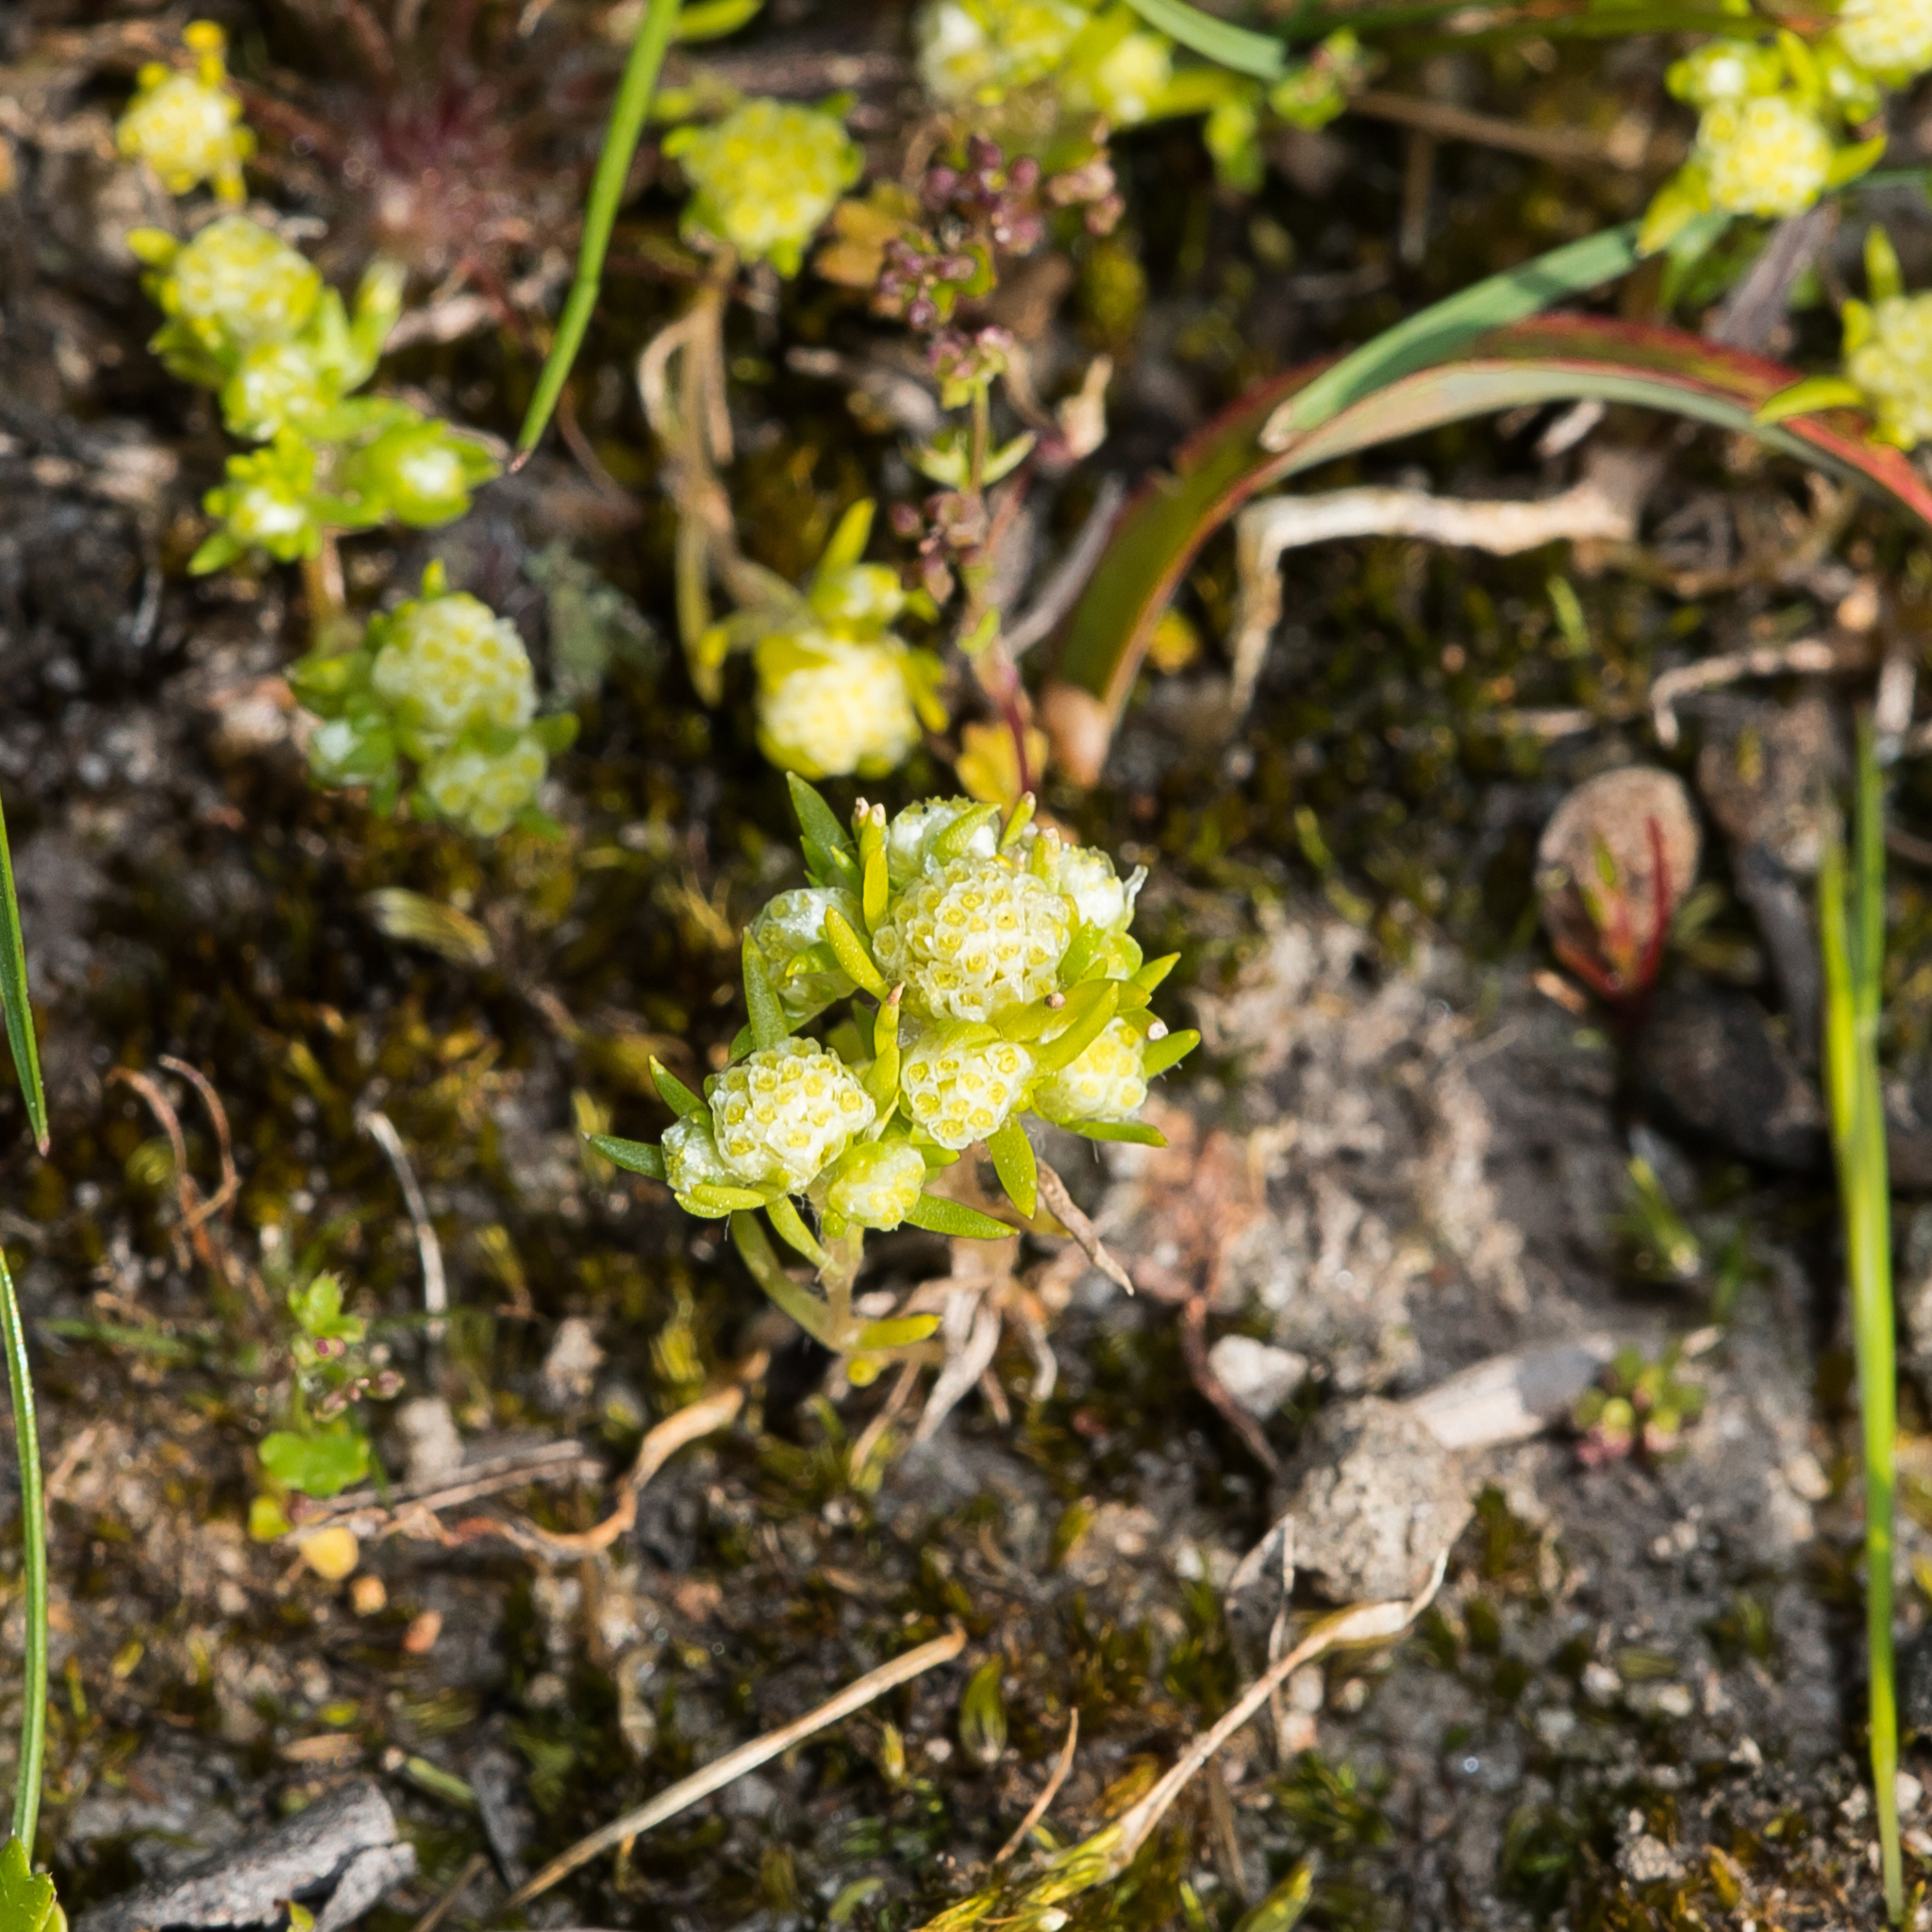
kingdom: Plantae
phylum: Tracheophyta
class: Magnoliopsida
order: Asterales
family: Asteraceae
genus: Siloxerus
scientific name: Siloxerus multiflorus
